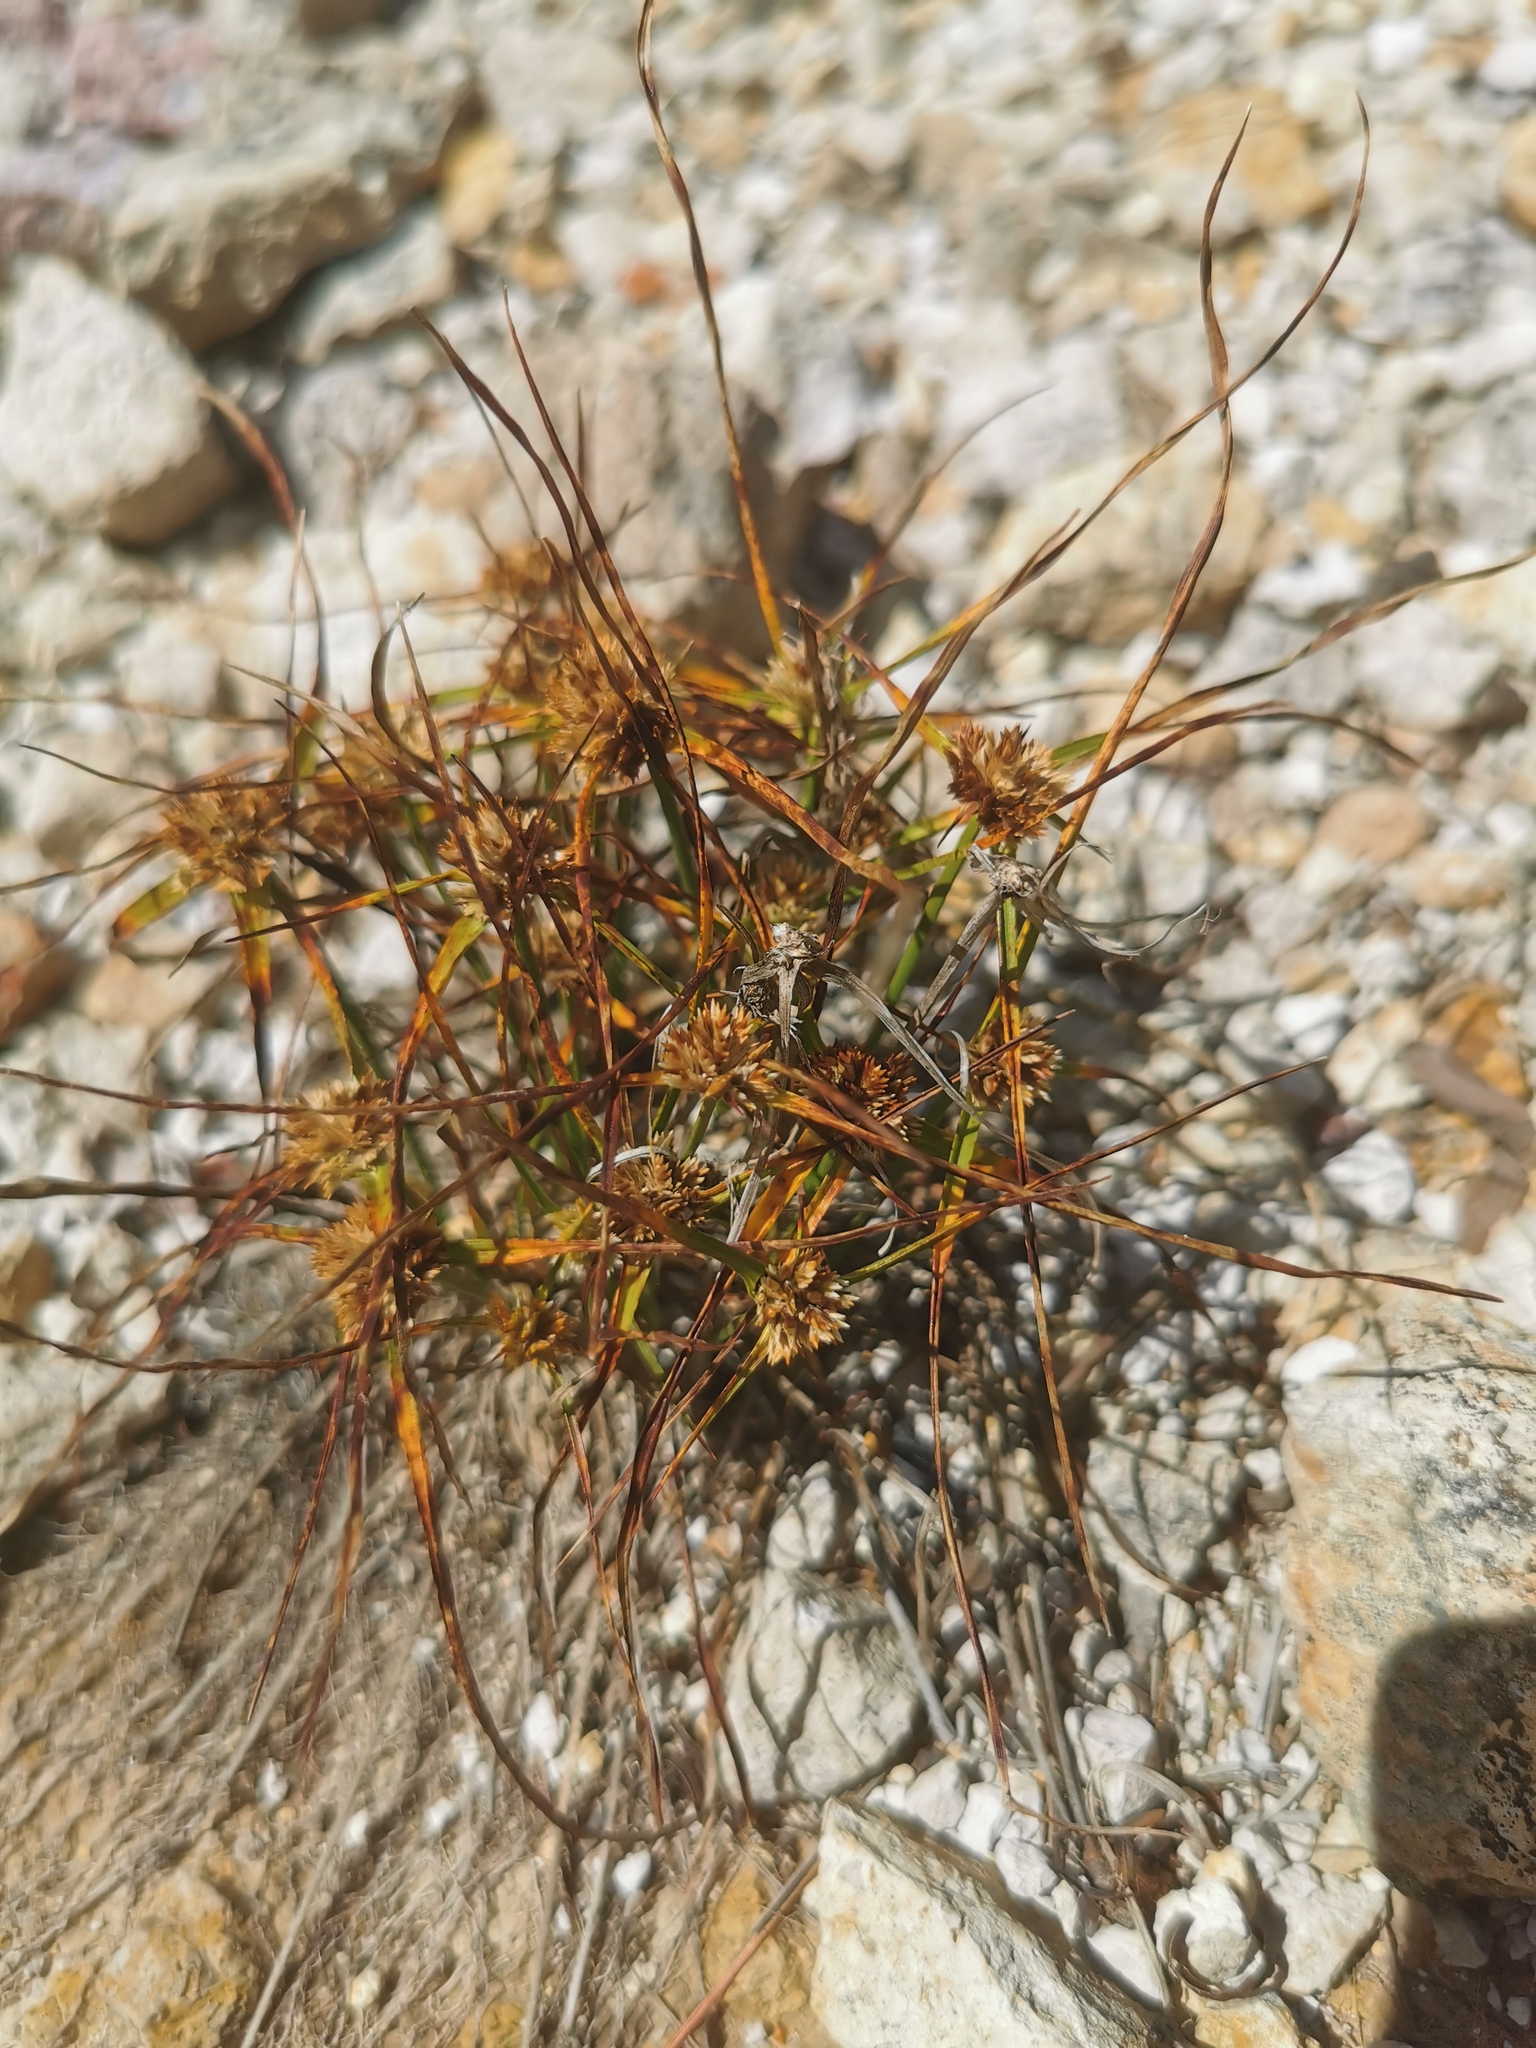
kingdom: Plantae
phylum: Tracheophyta
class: Liliopsida
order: Poales
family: Cyperaceae
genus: Cyperus
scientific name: Cyperus seslerioides
